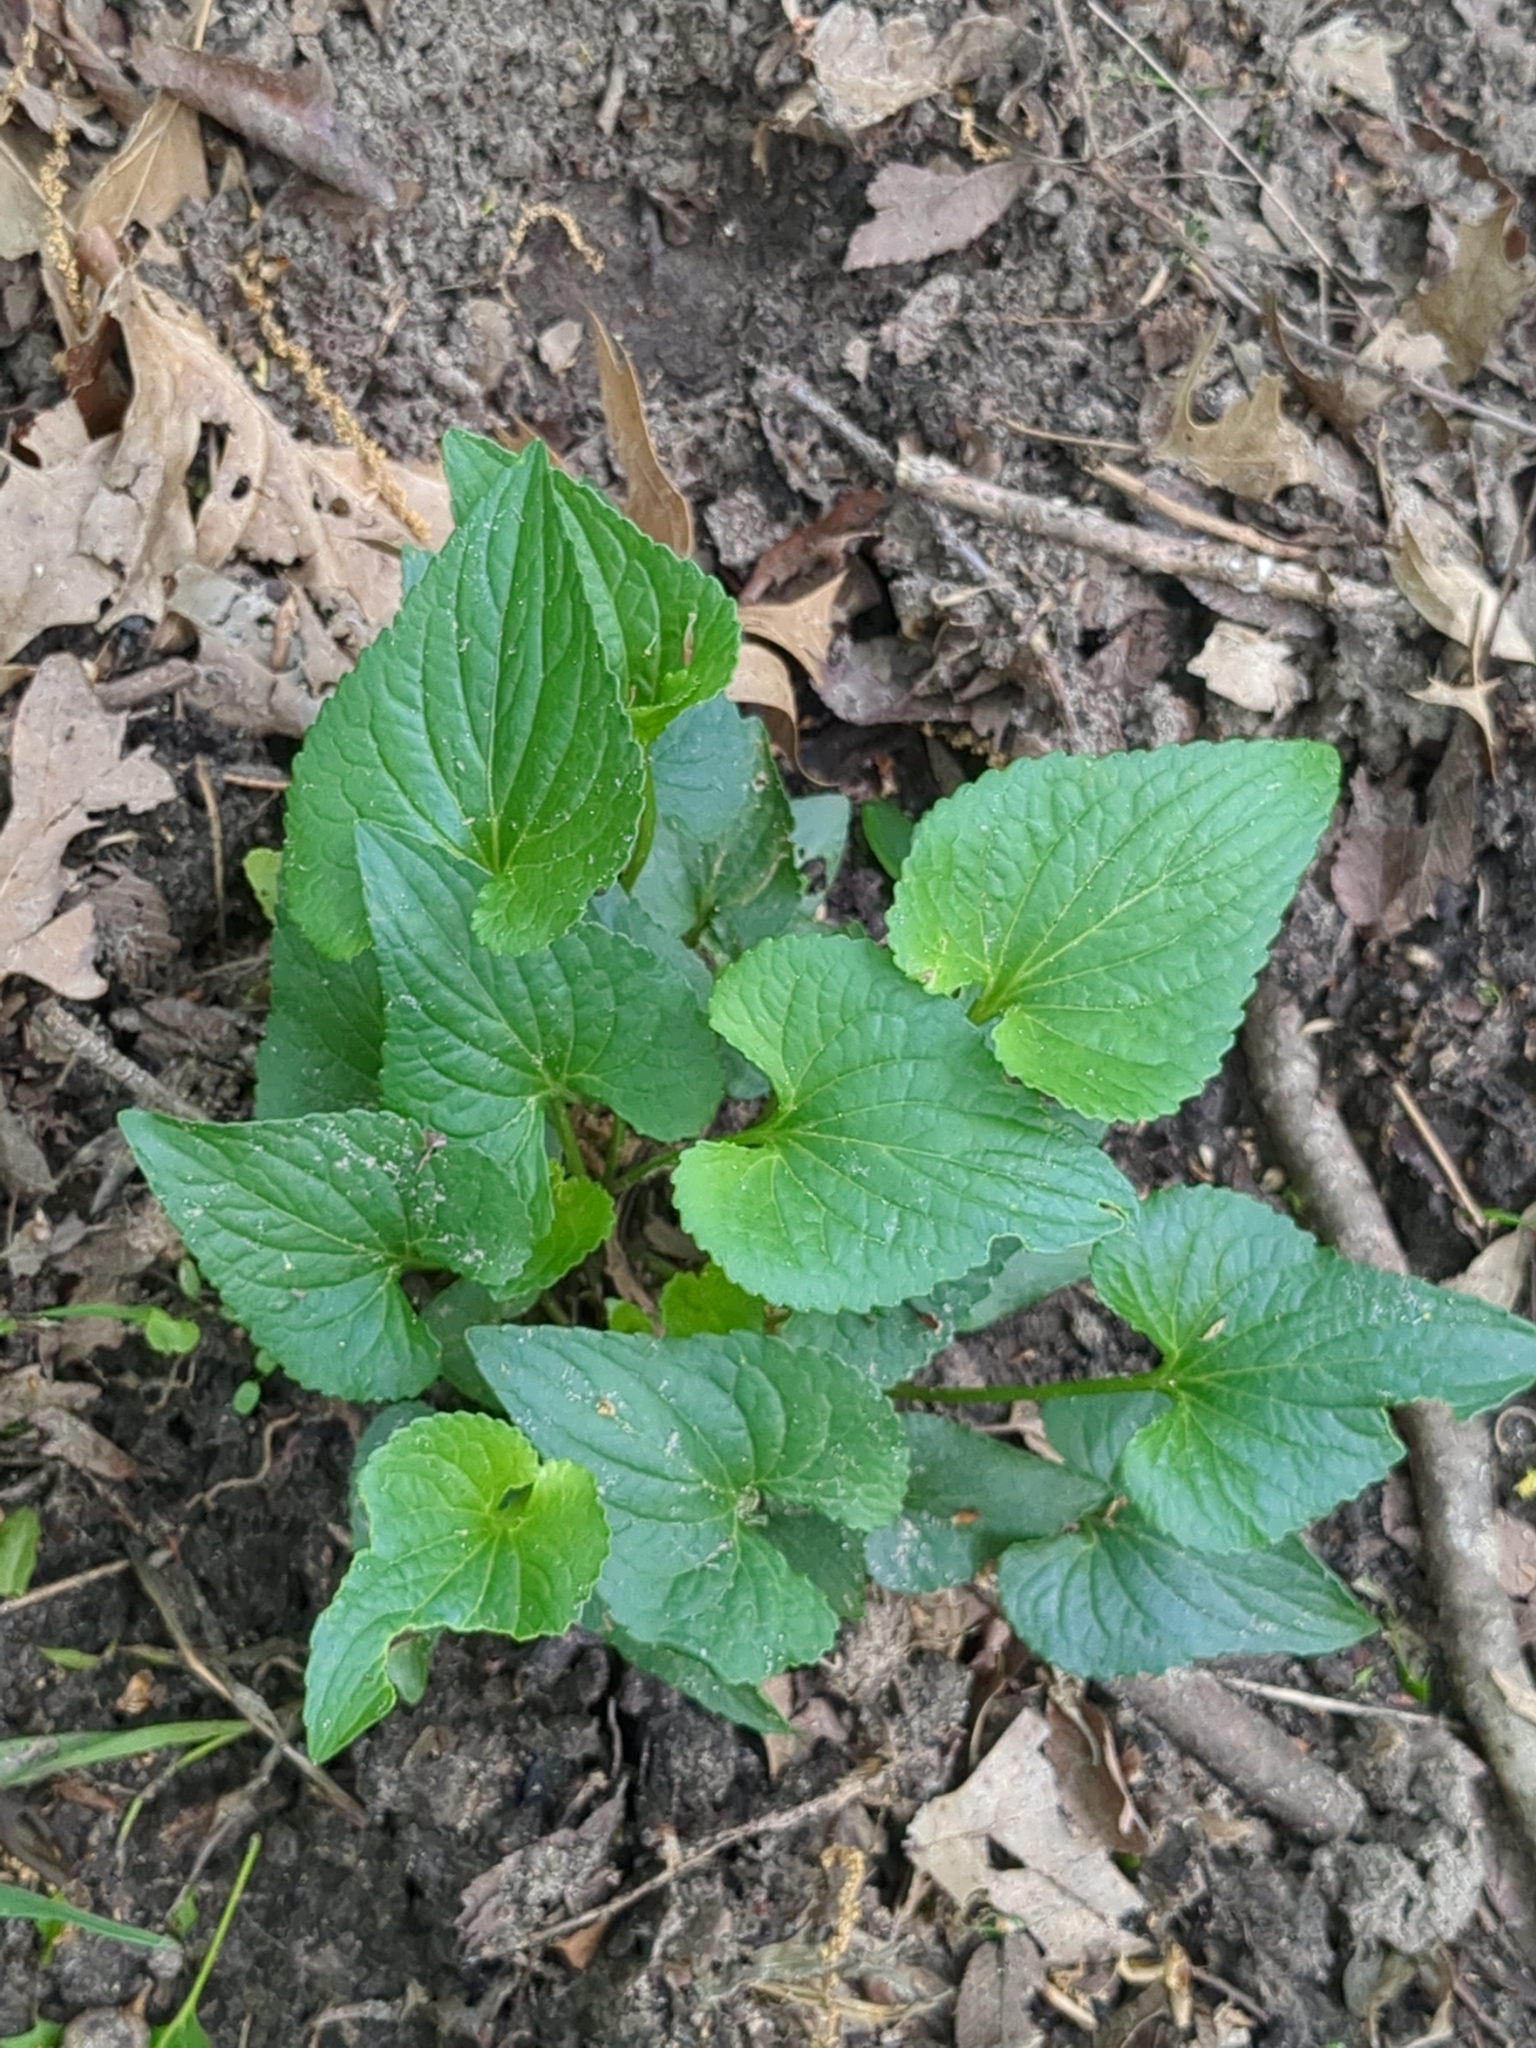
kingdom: Plantae
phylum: Tracheophyta
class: Magnoliopsida
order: Malpighiales
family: Violaceae
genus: Viola
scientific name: Viola missouriensis
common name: Missouri violet
